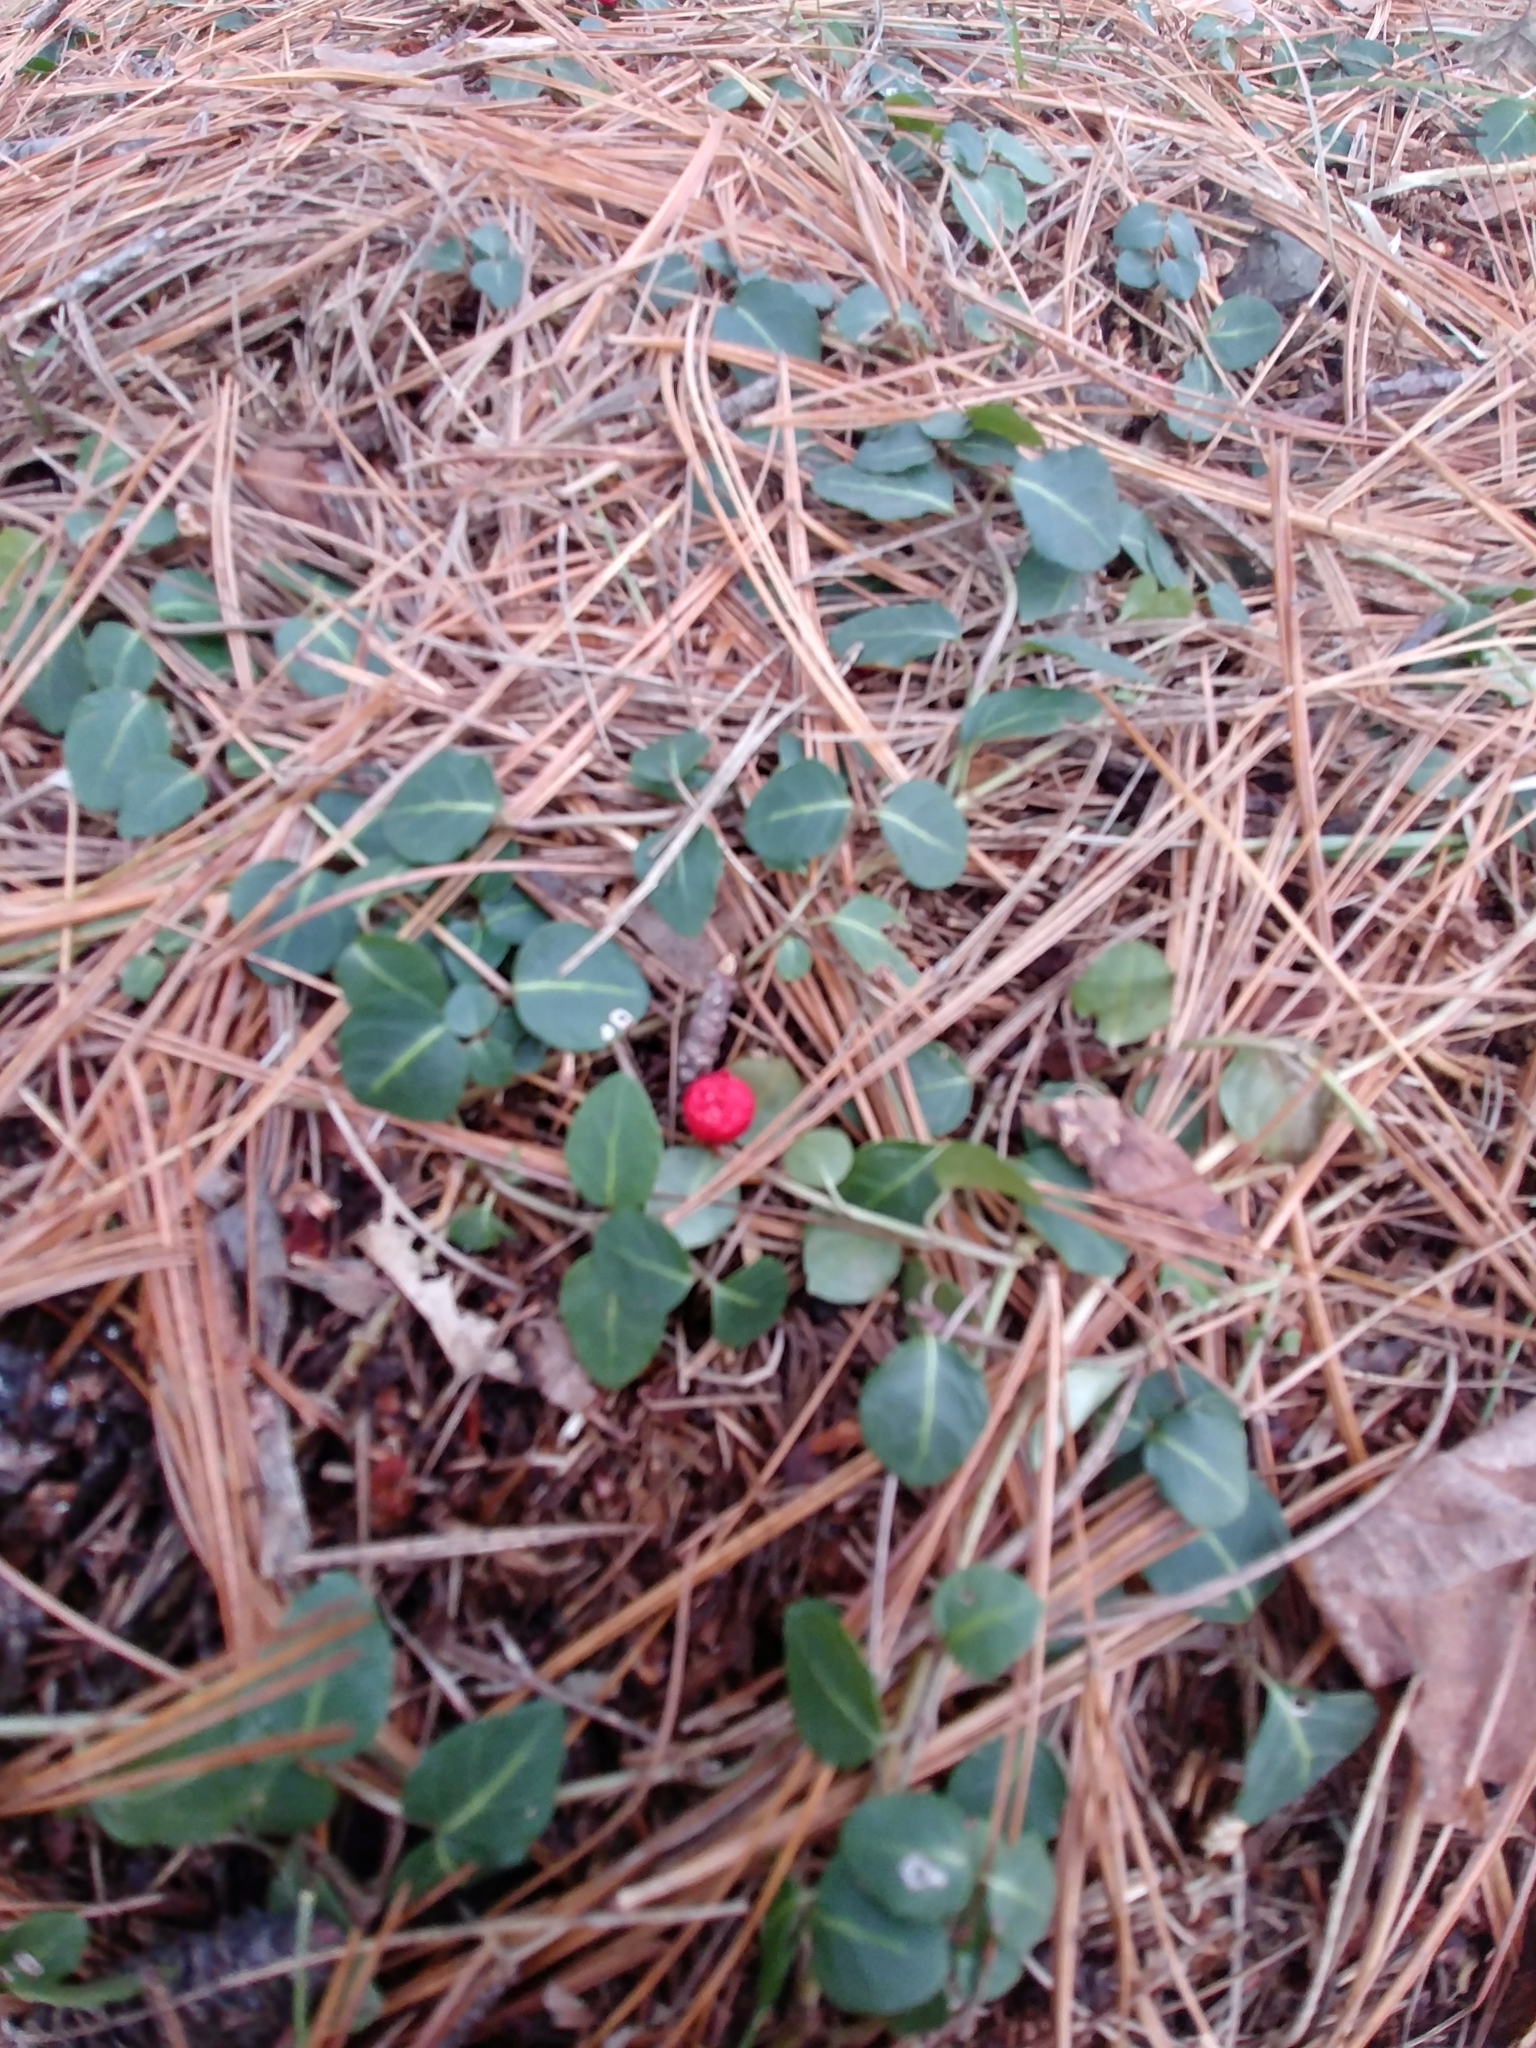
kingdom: Plantae
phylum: Tracheophyta
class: Magnoliopsida
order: Gentianales
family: Rubiaceae
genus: Mitchella
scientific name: Mitchella repens
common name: Partridge-berry
